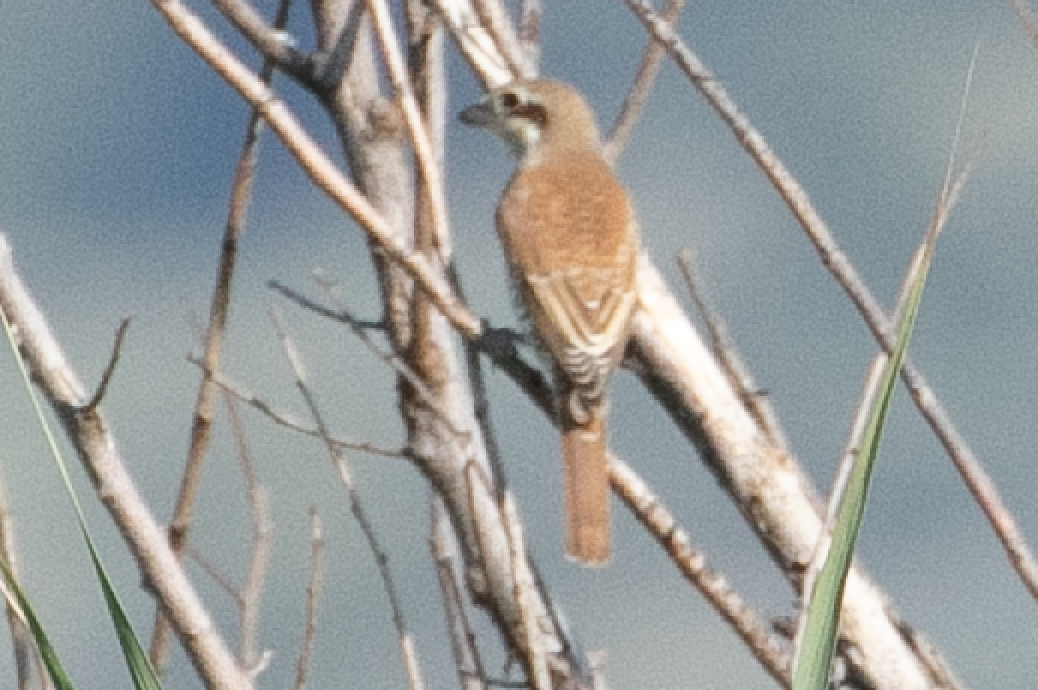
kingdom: Animalia
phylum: Chordata
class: Aves
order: Passeriformes
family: Laniidae
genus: Lanius
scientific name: Lanius collurio
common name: Red-backed shrike
